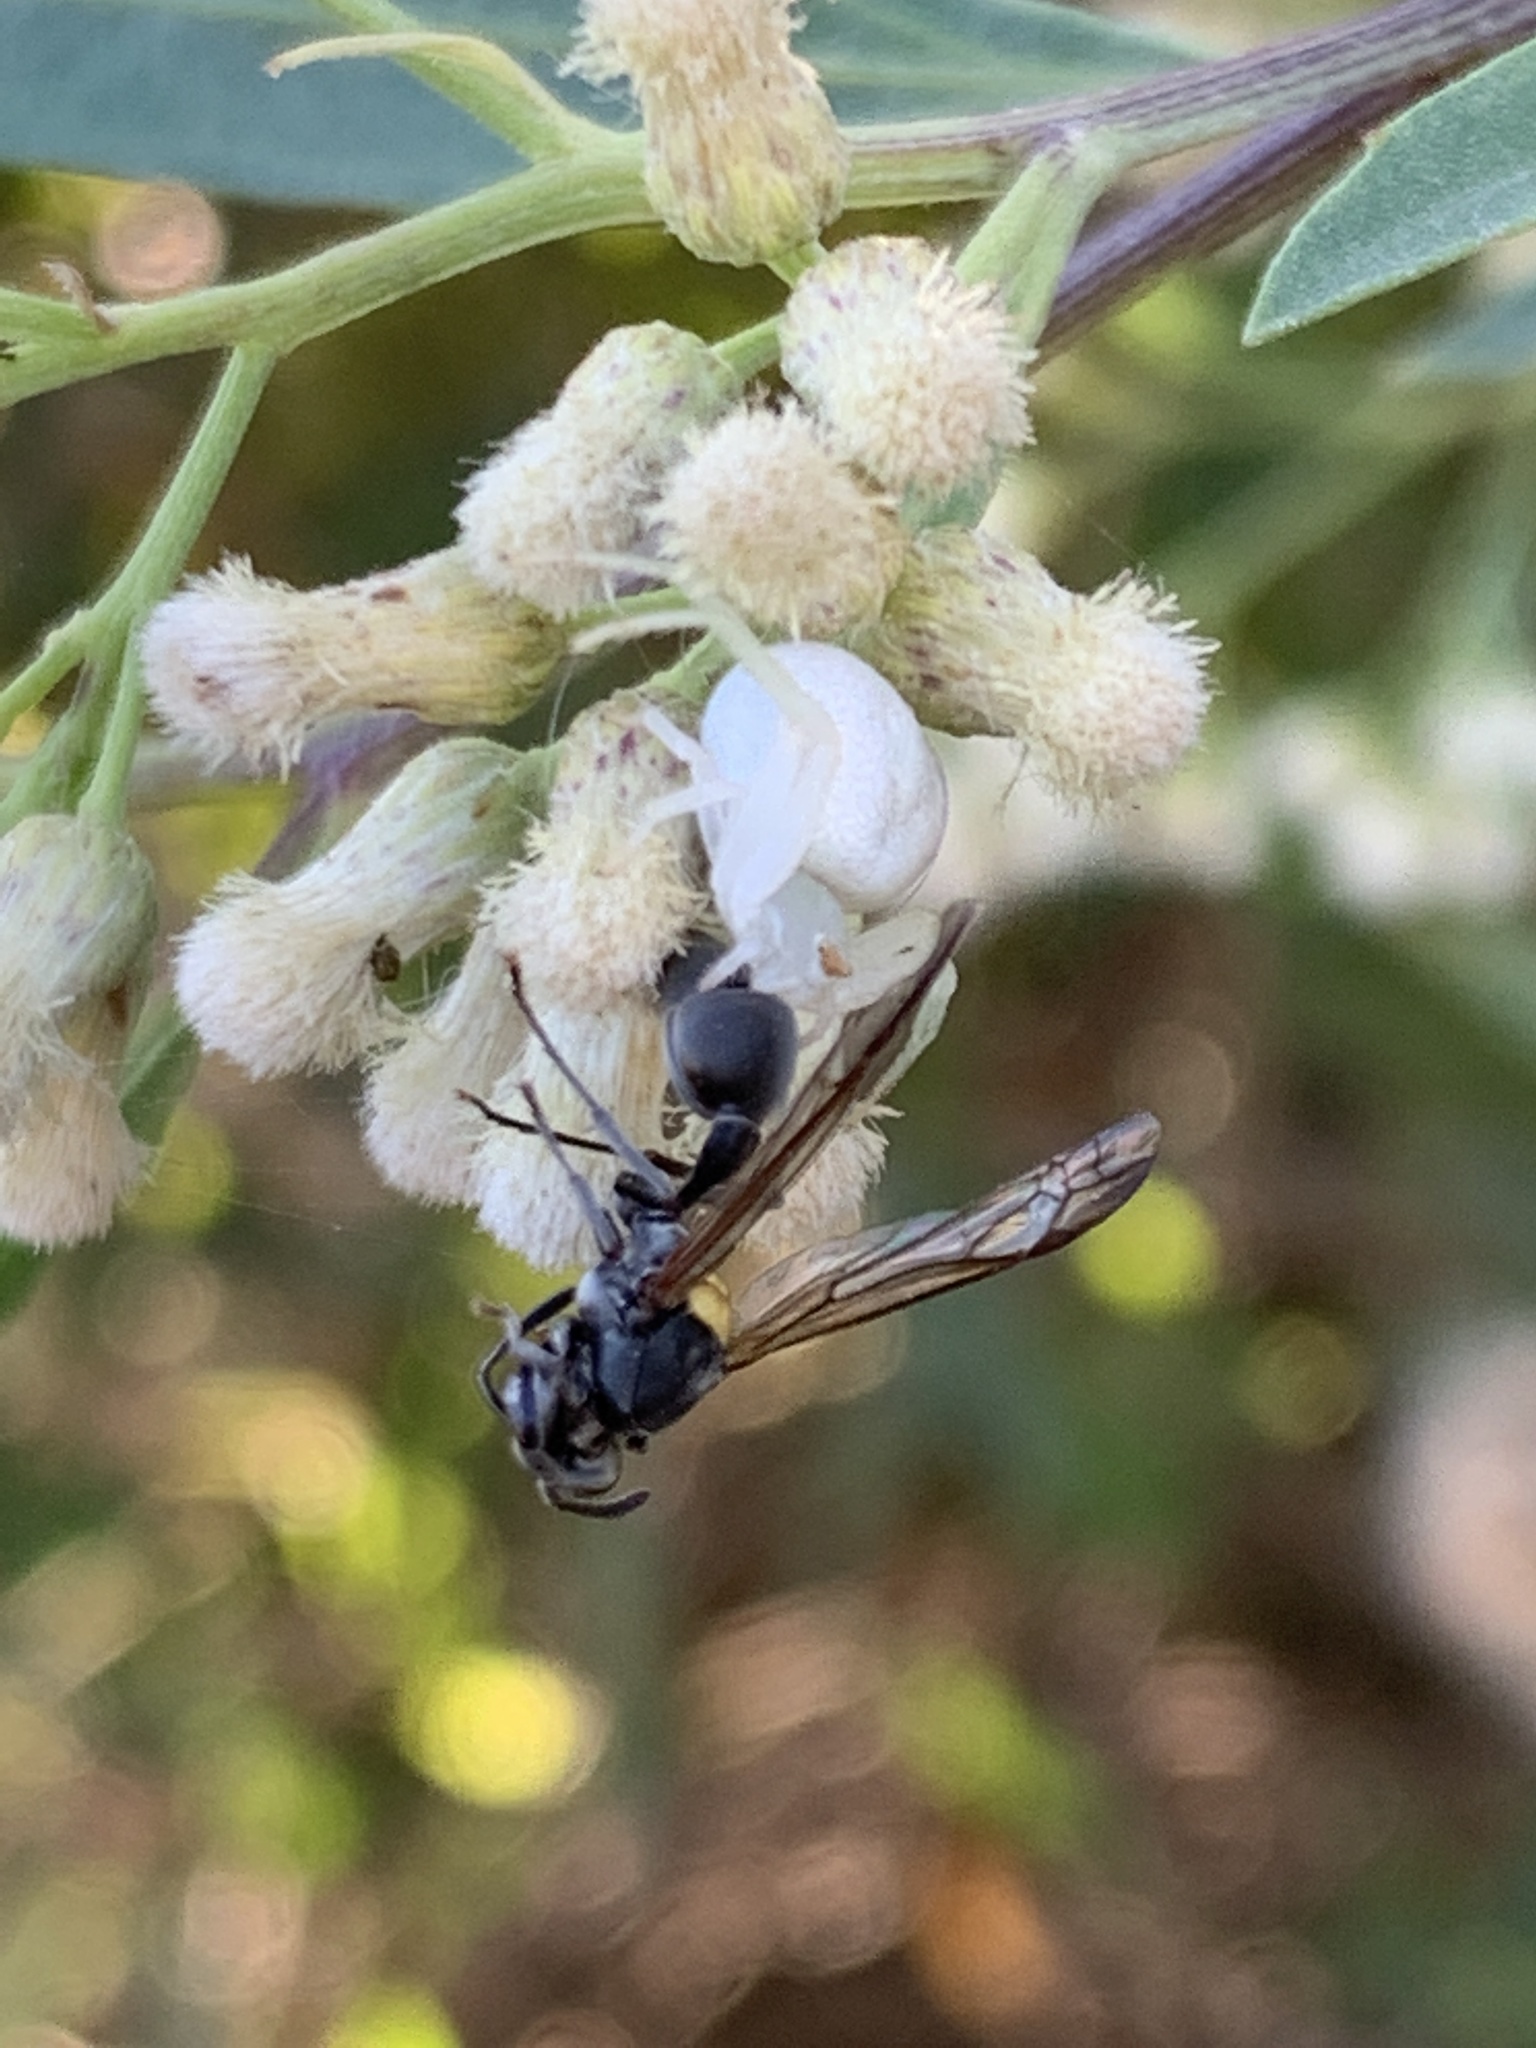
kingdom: Animalia
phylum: Arthropoda
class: Arachnida
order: Araneae
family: Thomisidae
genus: Misumenops
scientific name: Misumenops
